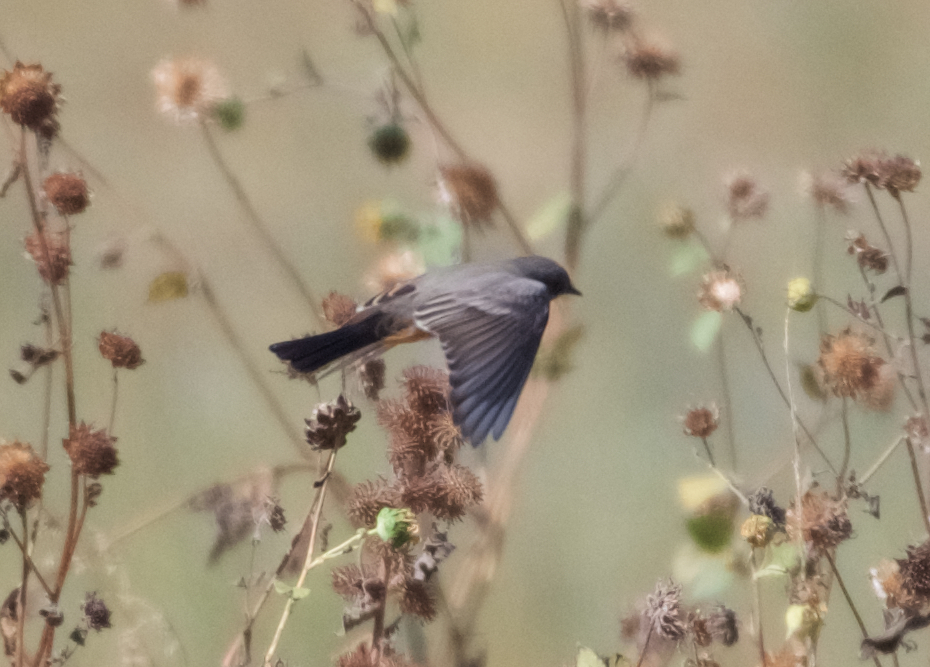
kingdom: Animalia
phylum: Chordata
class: Aves
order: Passeriformes
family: Tyrannidae
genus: Sayornis
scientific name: Sayornis saya
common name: Say's phoebe
